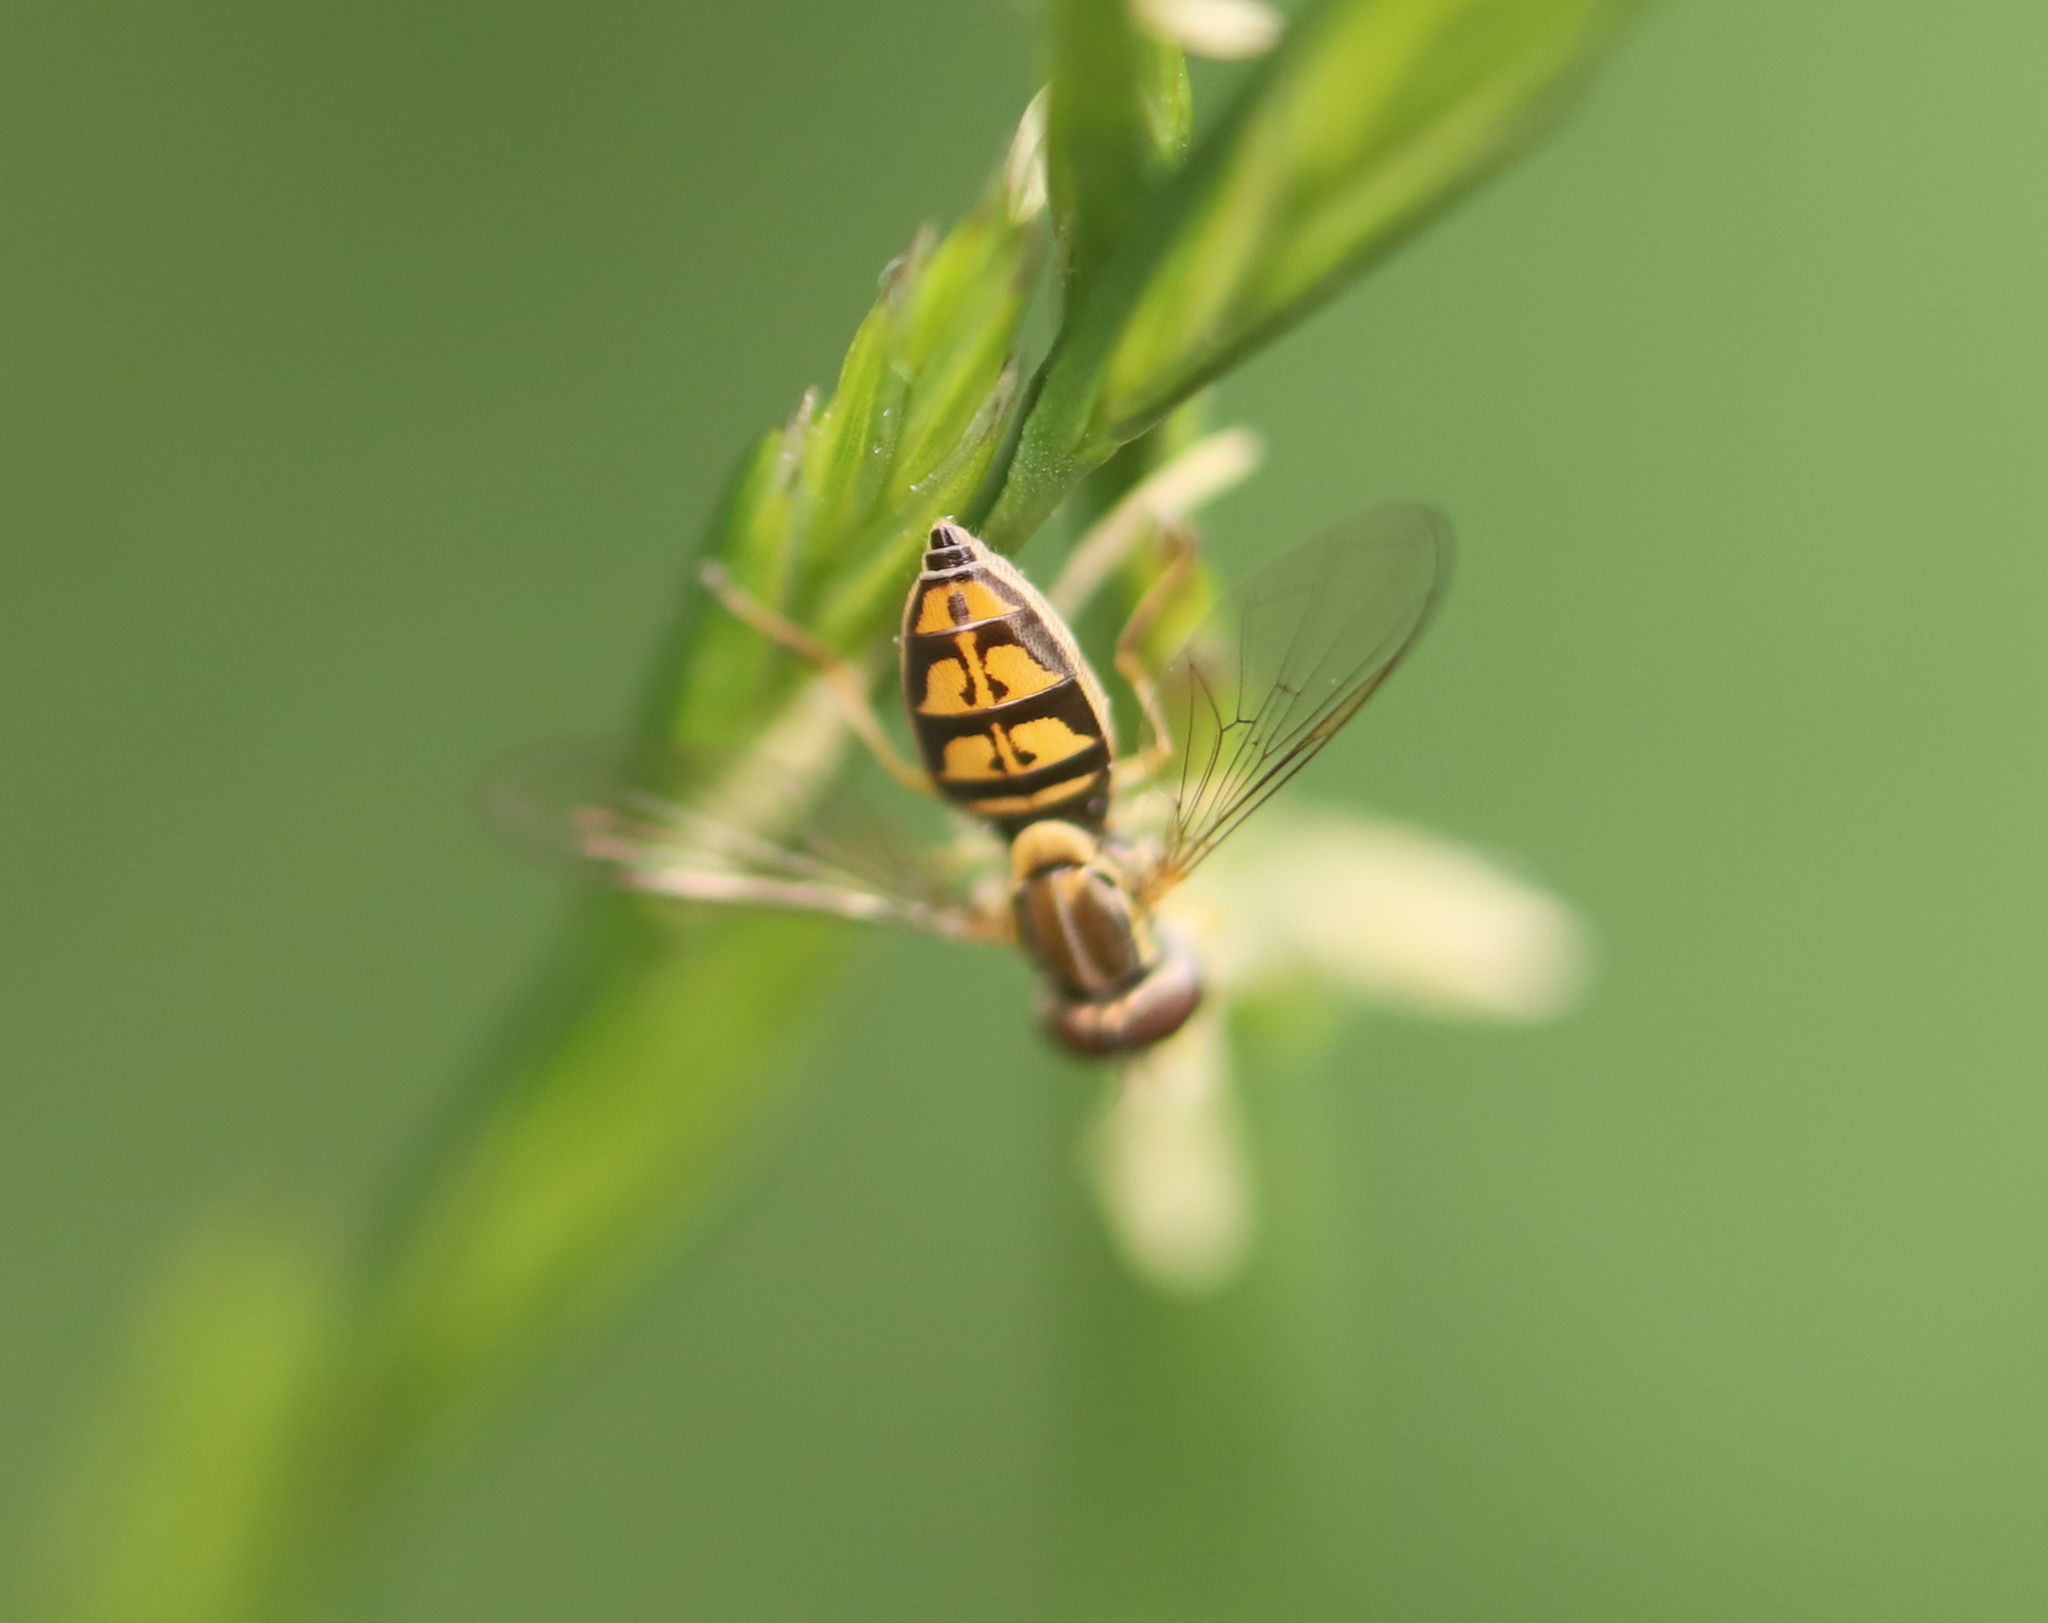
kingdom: Animalia
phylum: Arthropoda
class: Insecta
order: Diptera
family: Syrphidae
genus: Toxomerus
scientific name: Toxomerus marginatus
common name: Syrphid fly
